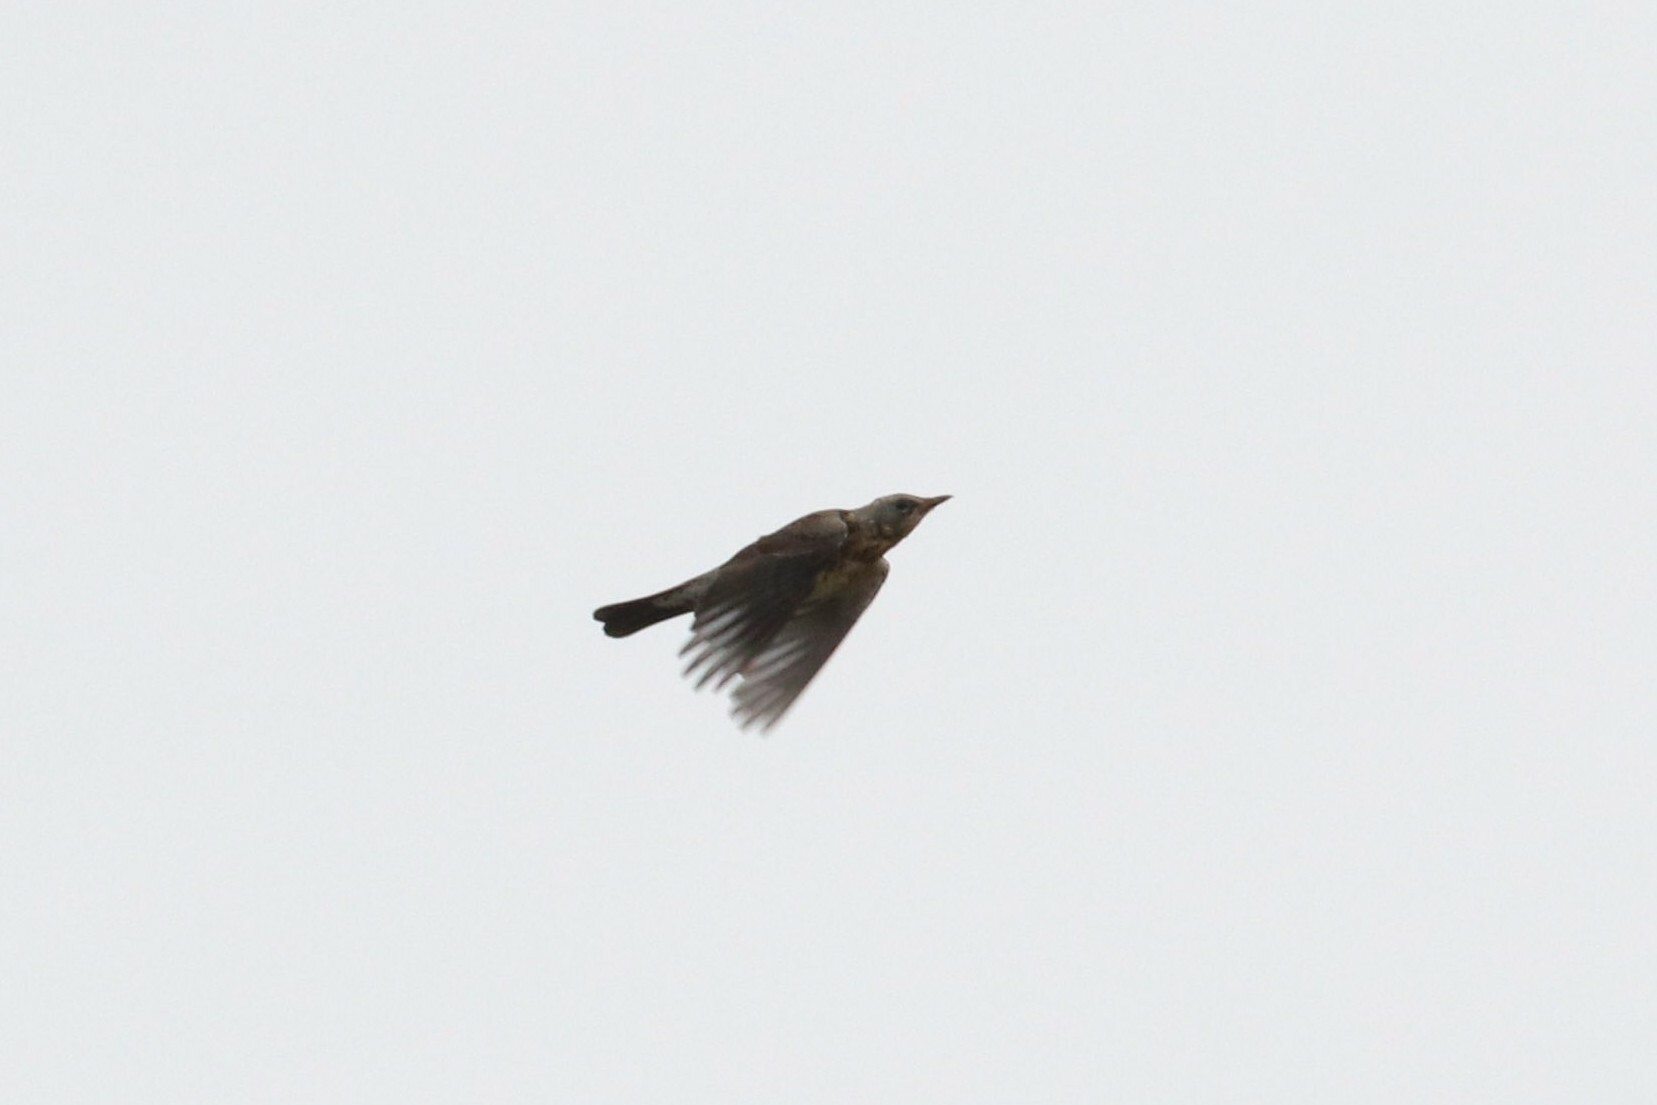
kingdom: Animalia
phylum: Chordata
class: Aves
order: Passeriformes
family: Turdidae
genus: Turdus
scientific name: Turdus pilaris
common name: Fieldfare
